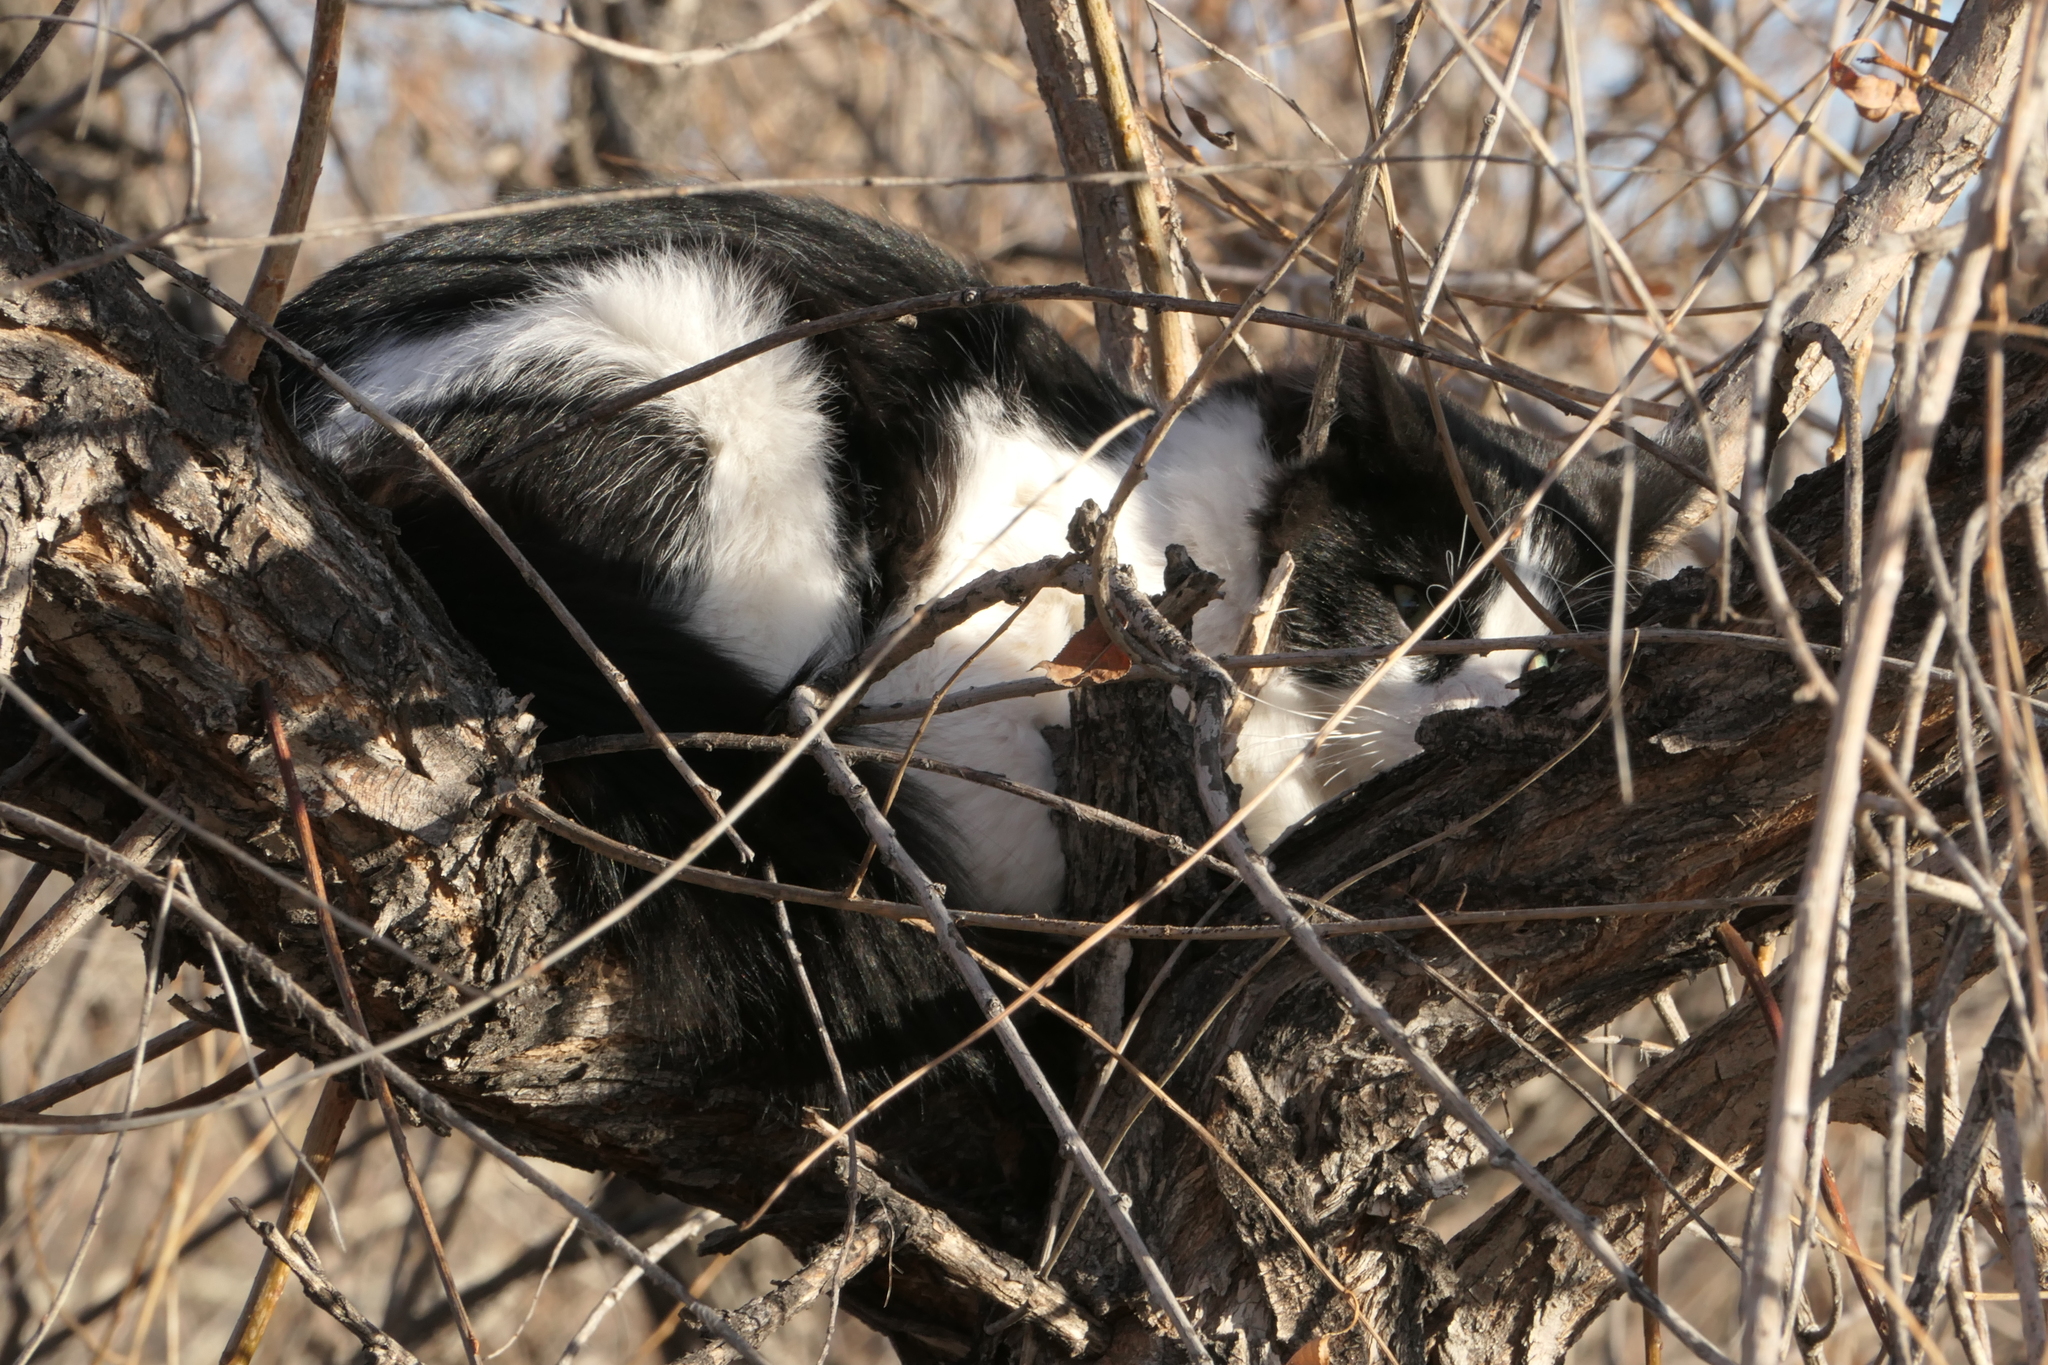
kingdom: Animalia
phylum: Chordata
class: Mammalia
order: Carnivora
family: Felidae
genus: Felis
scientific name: Felis catus
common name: Domestic cat
